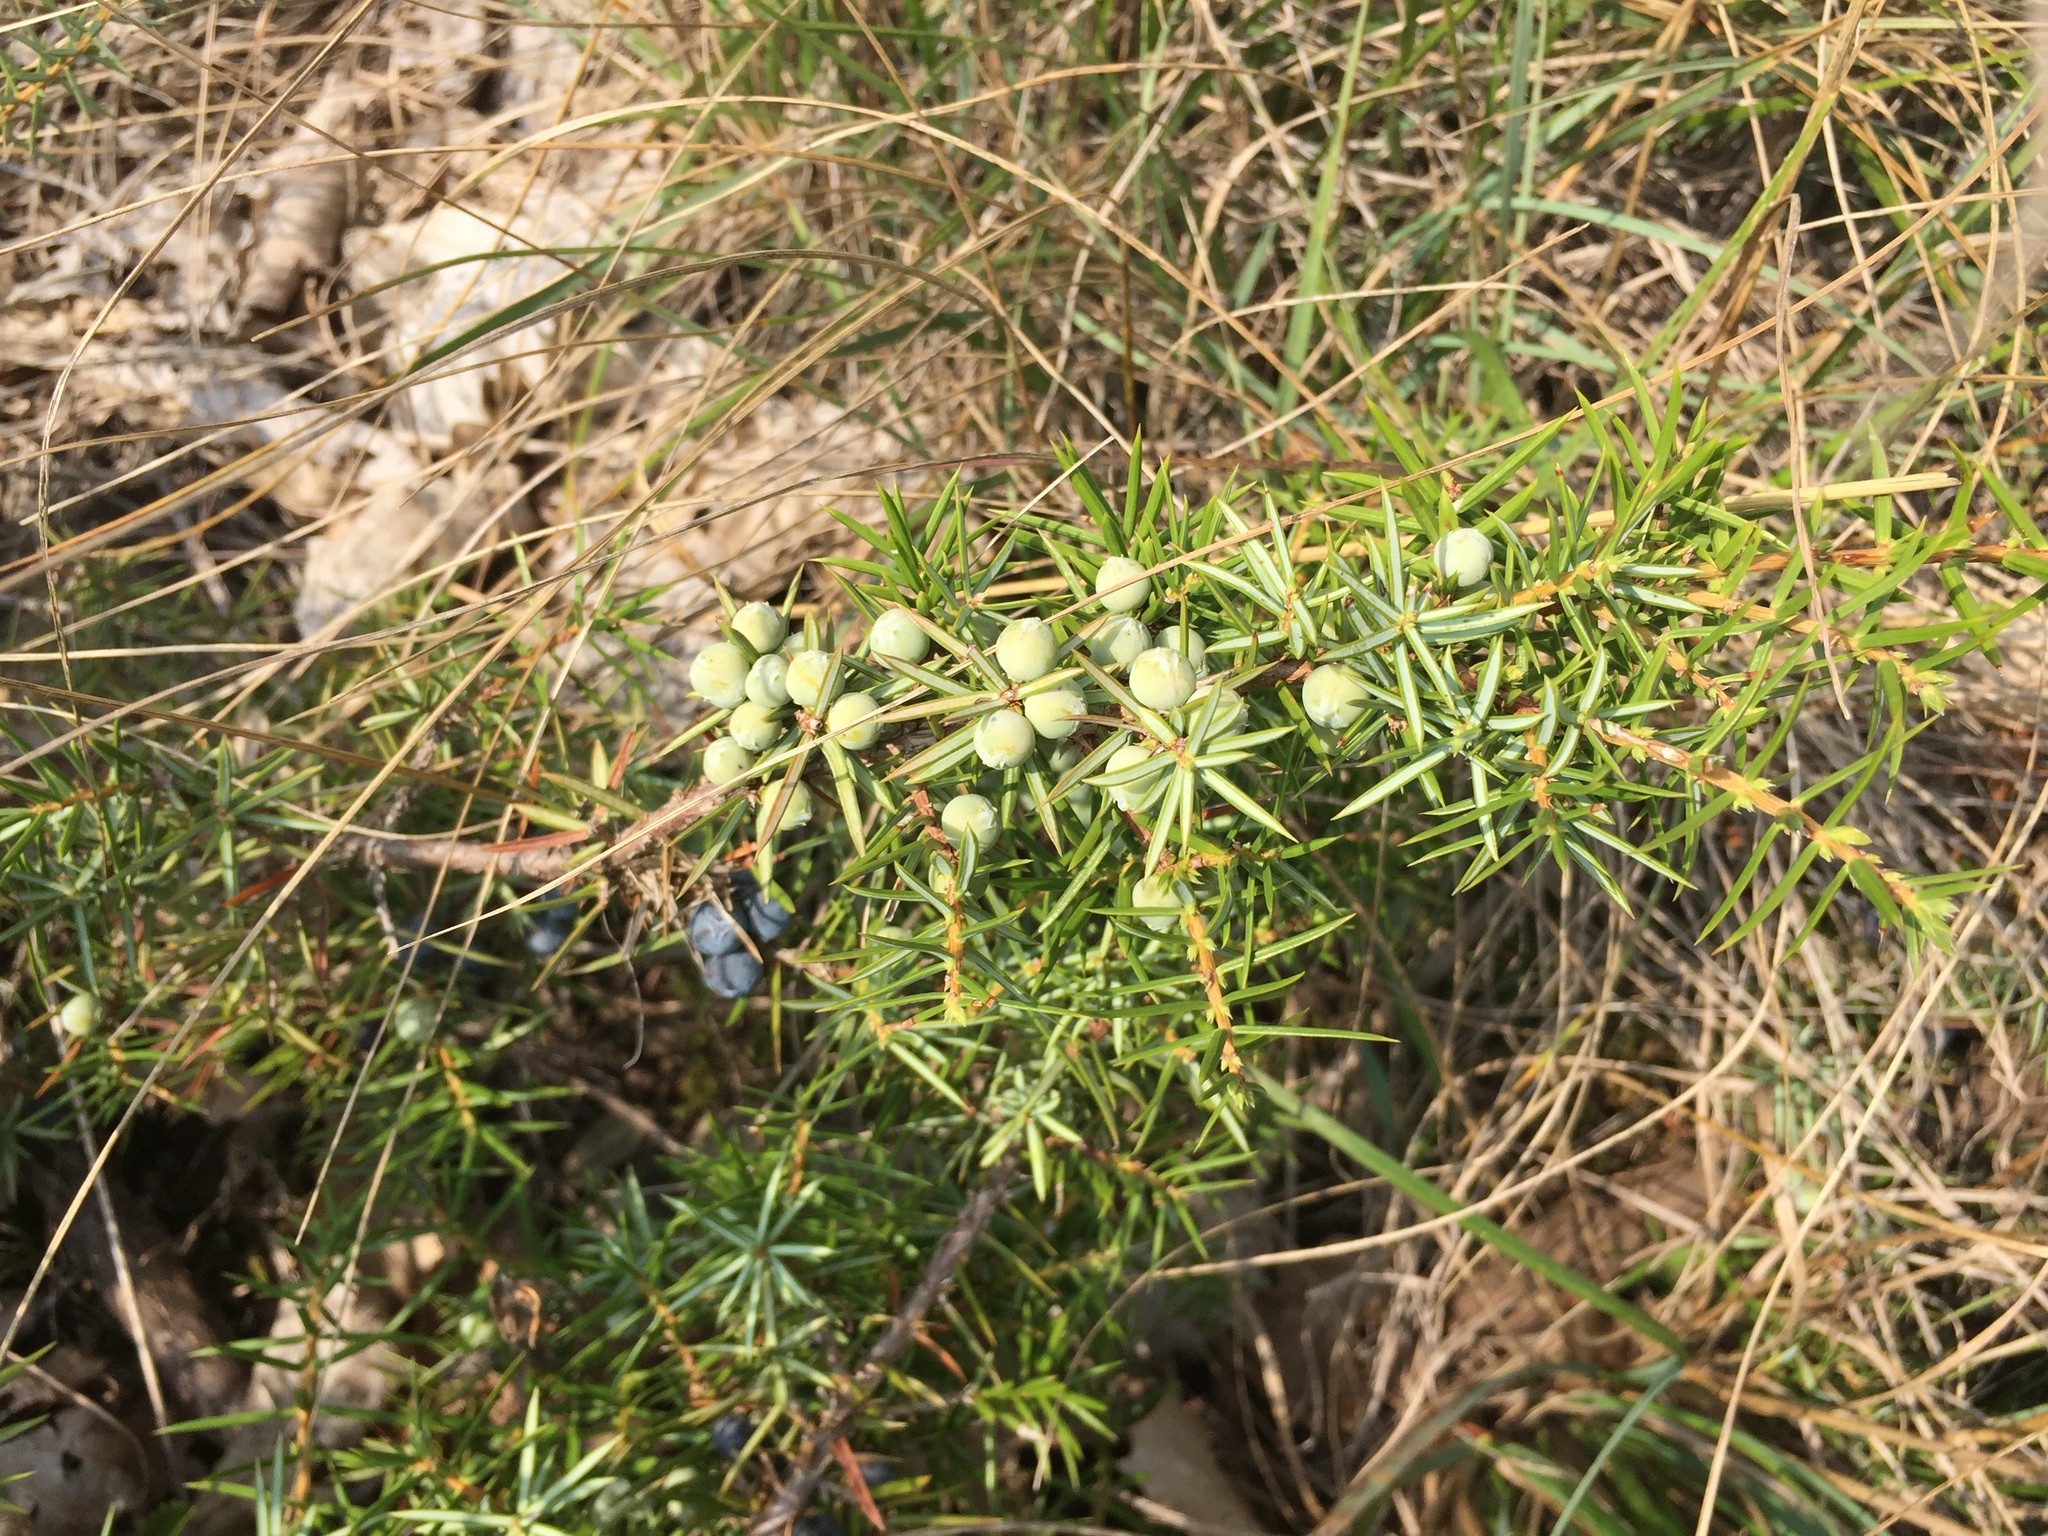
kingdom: Plantae
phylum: Tracheophyta
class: Pinopsida
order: Pinales
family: Cupressaceae
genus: Juniperus
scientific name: Juniperus communis
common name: Common juniper
